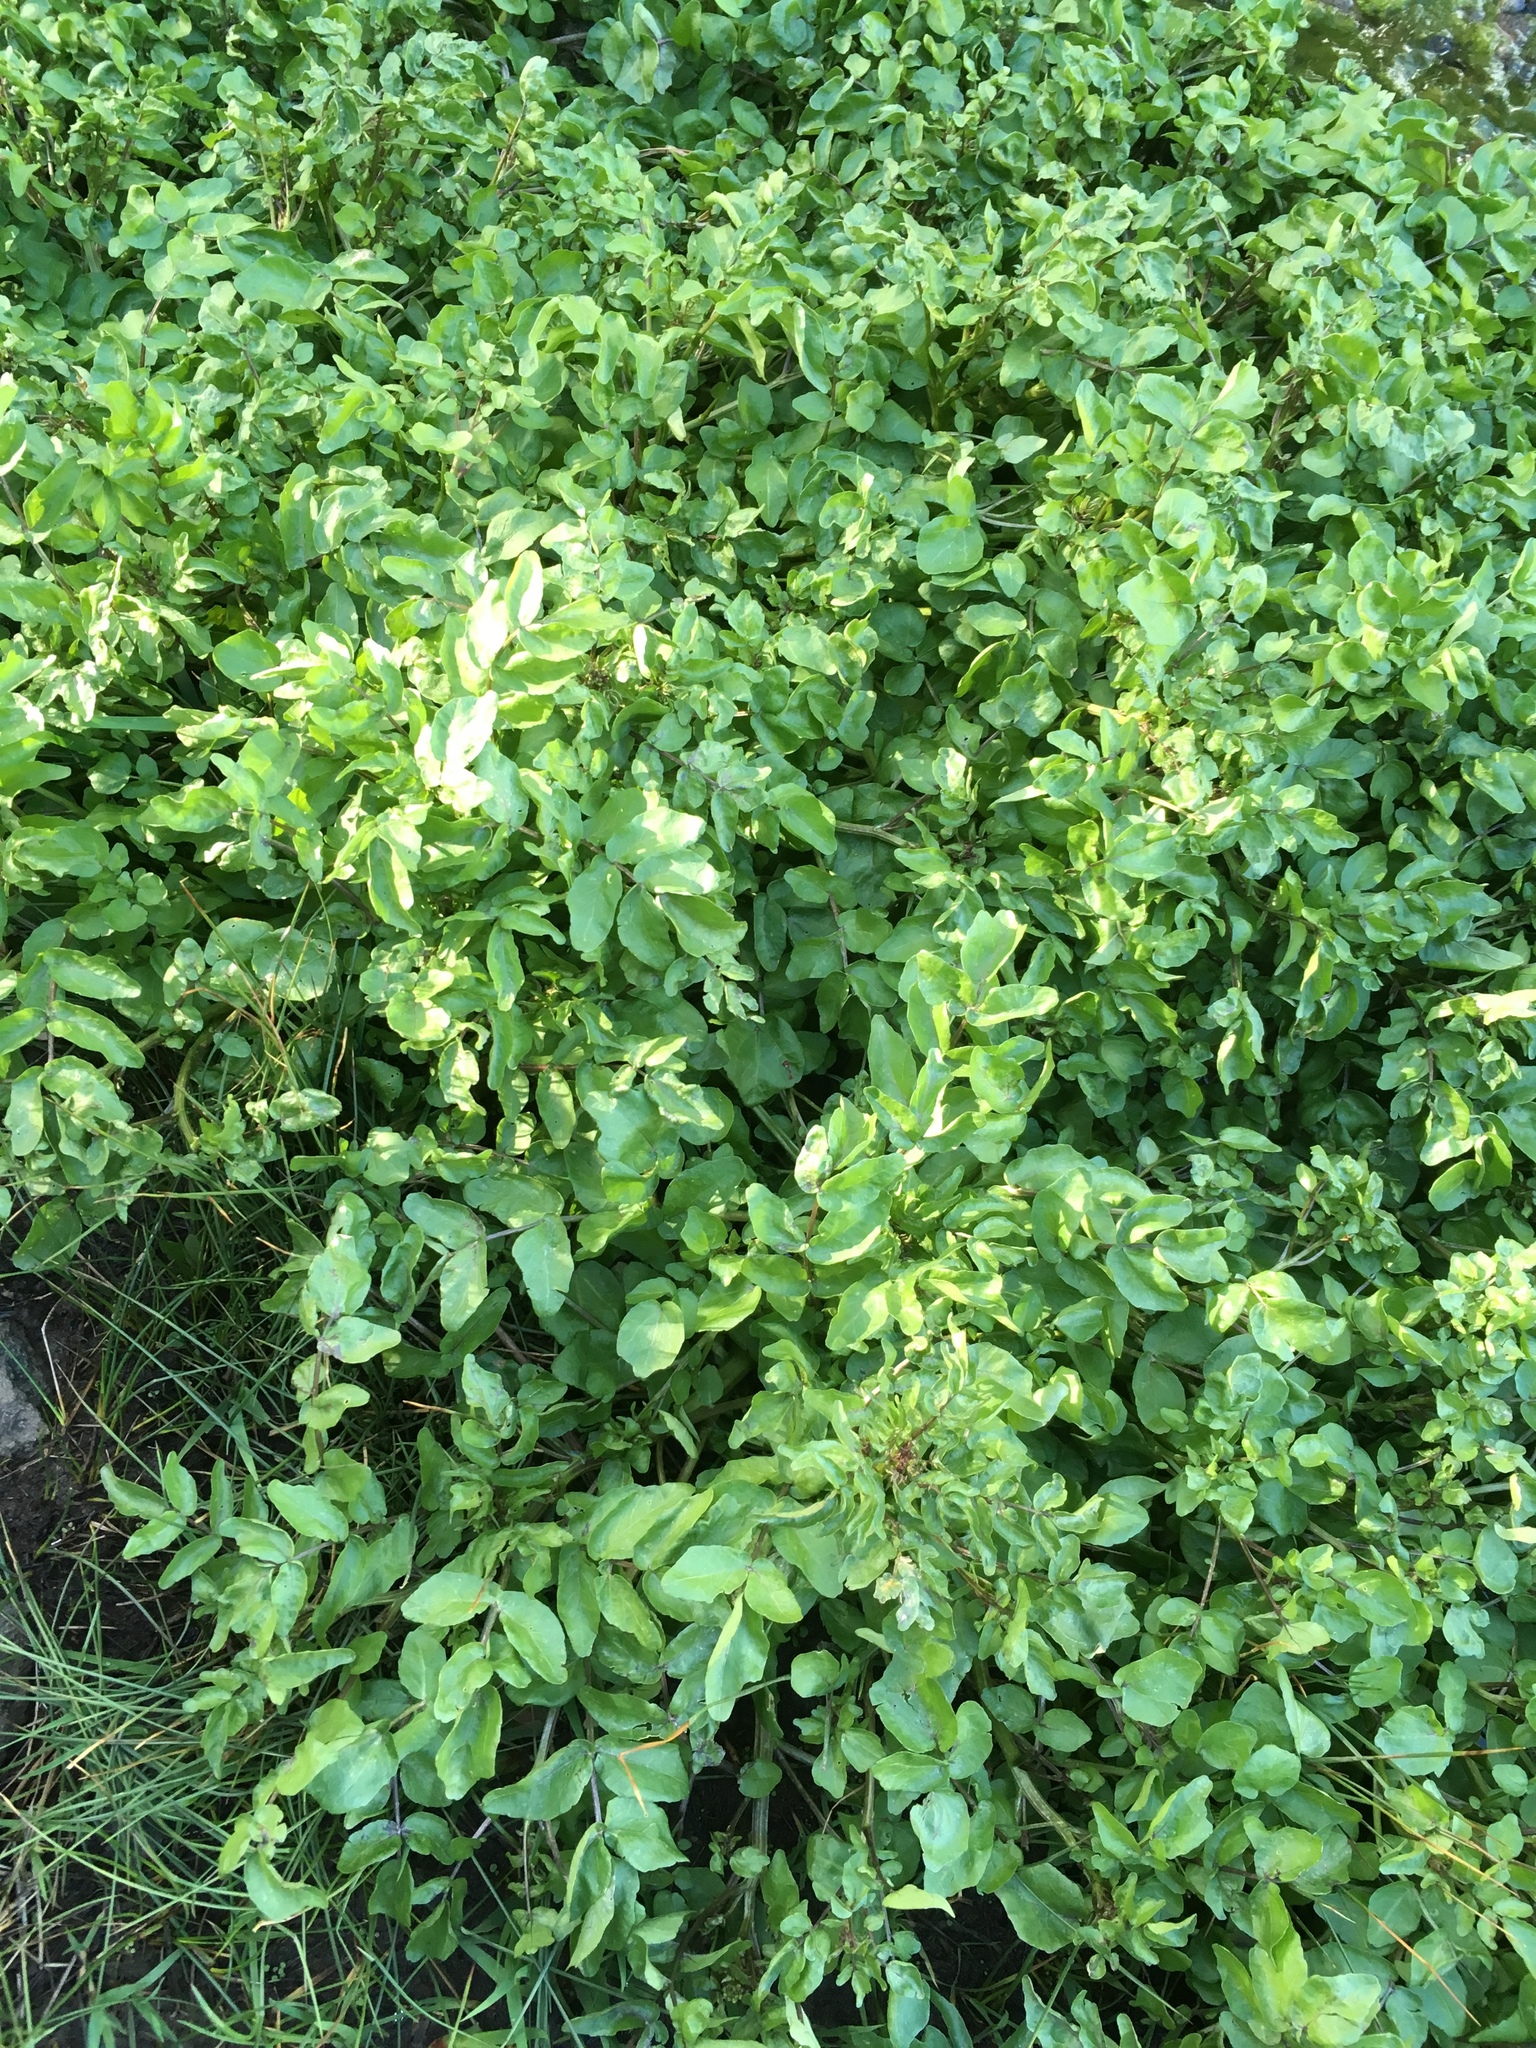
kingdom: Plantae
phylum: Tracheophyta
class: Magnoliopsida
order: Brassicales
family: Brassicaceae
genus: Nasturtium
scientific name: Nasturtium officinale
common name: Watercress
